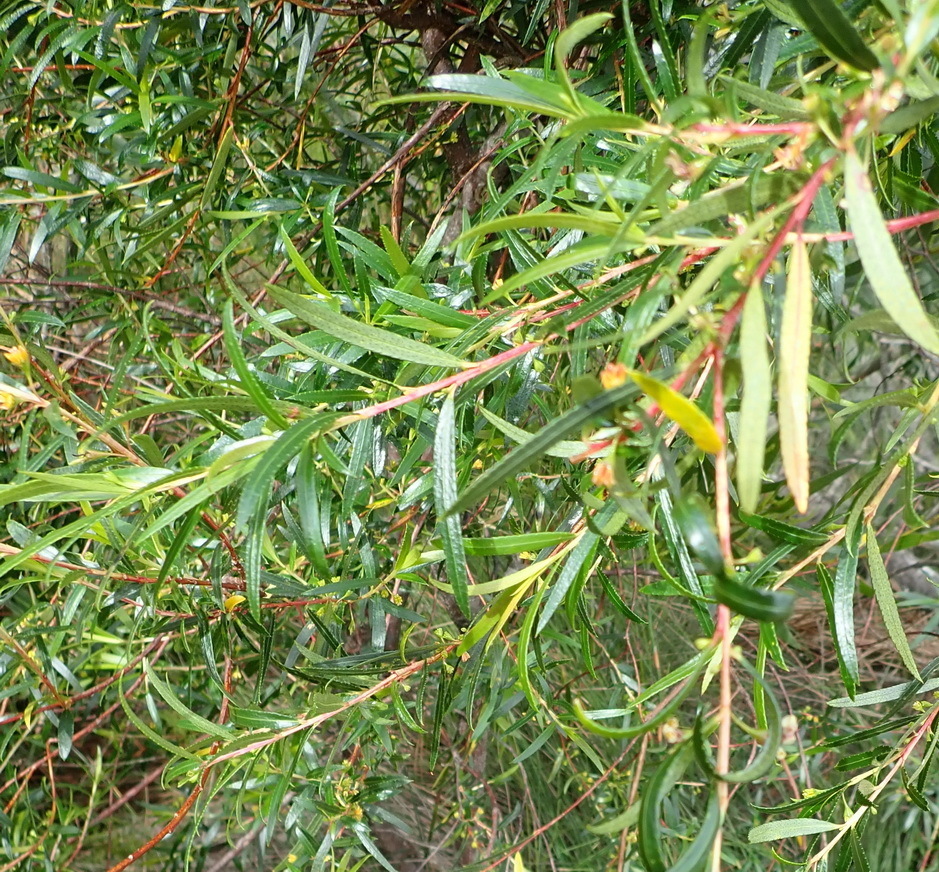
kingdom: Plantae
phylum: Tracheophyta
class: Magnoliopsida
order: Sapindales
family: Rutaceae
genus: Empleurum
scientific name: Empleurum unicapsulare
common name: False buchu
